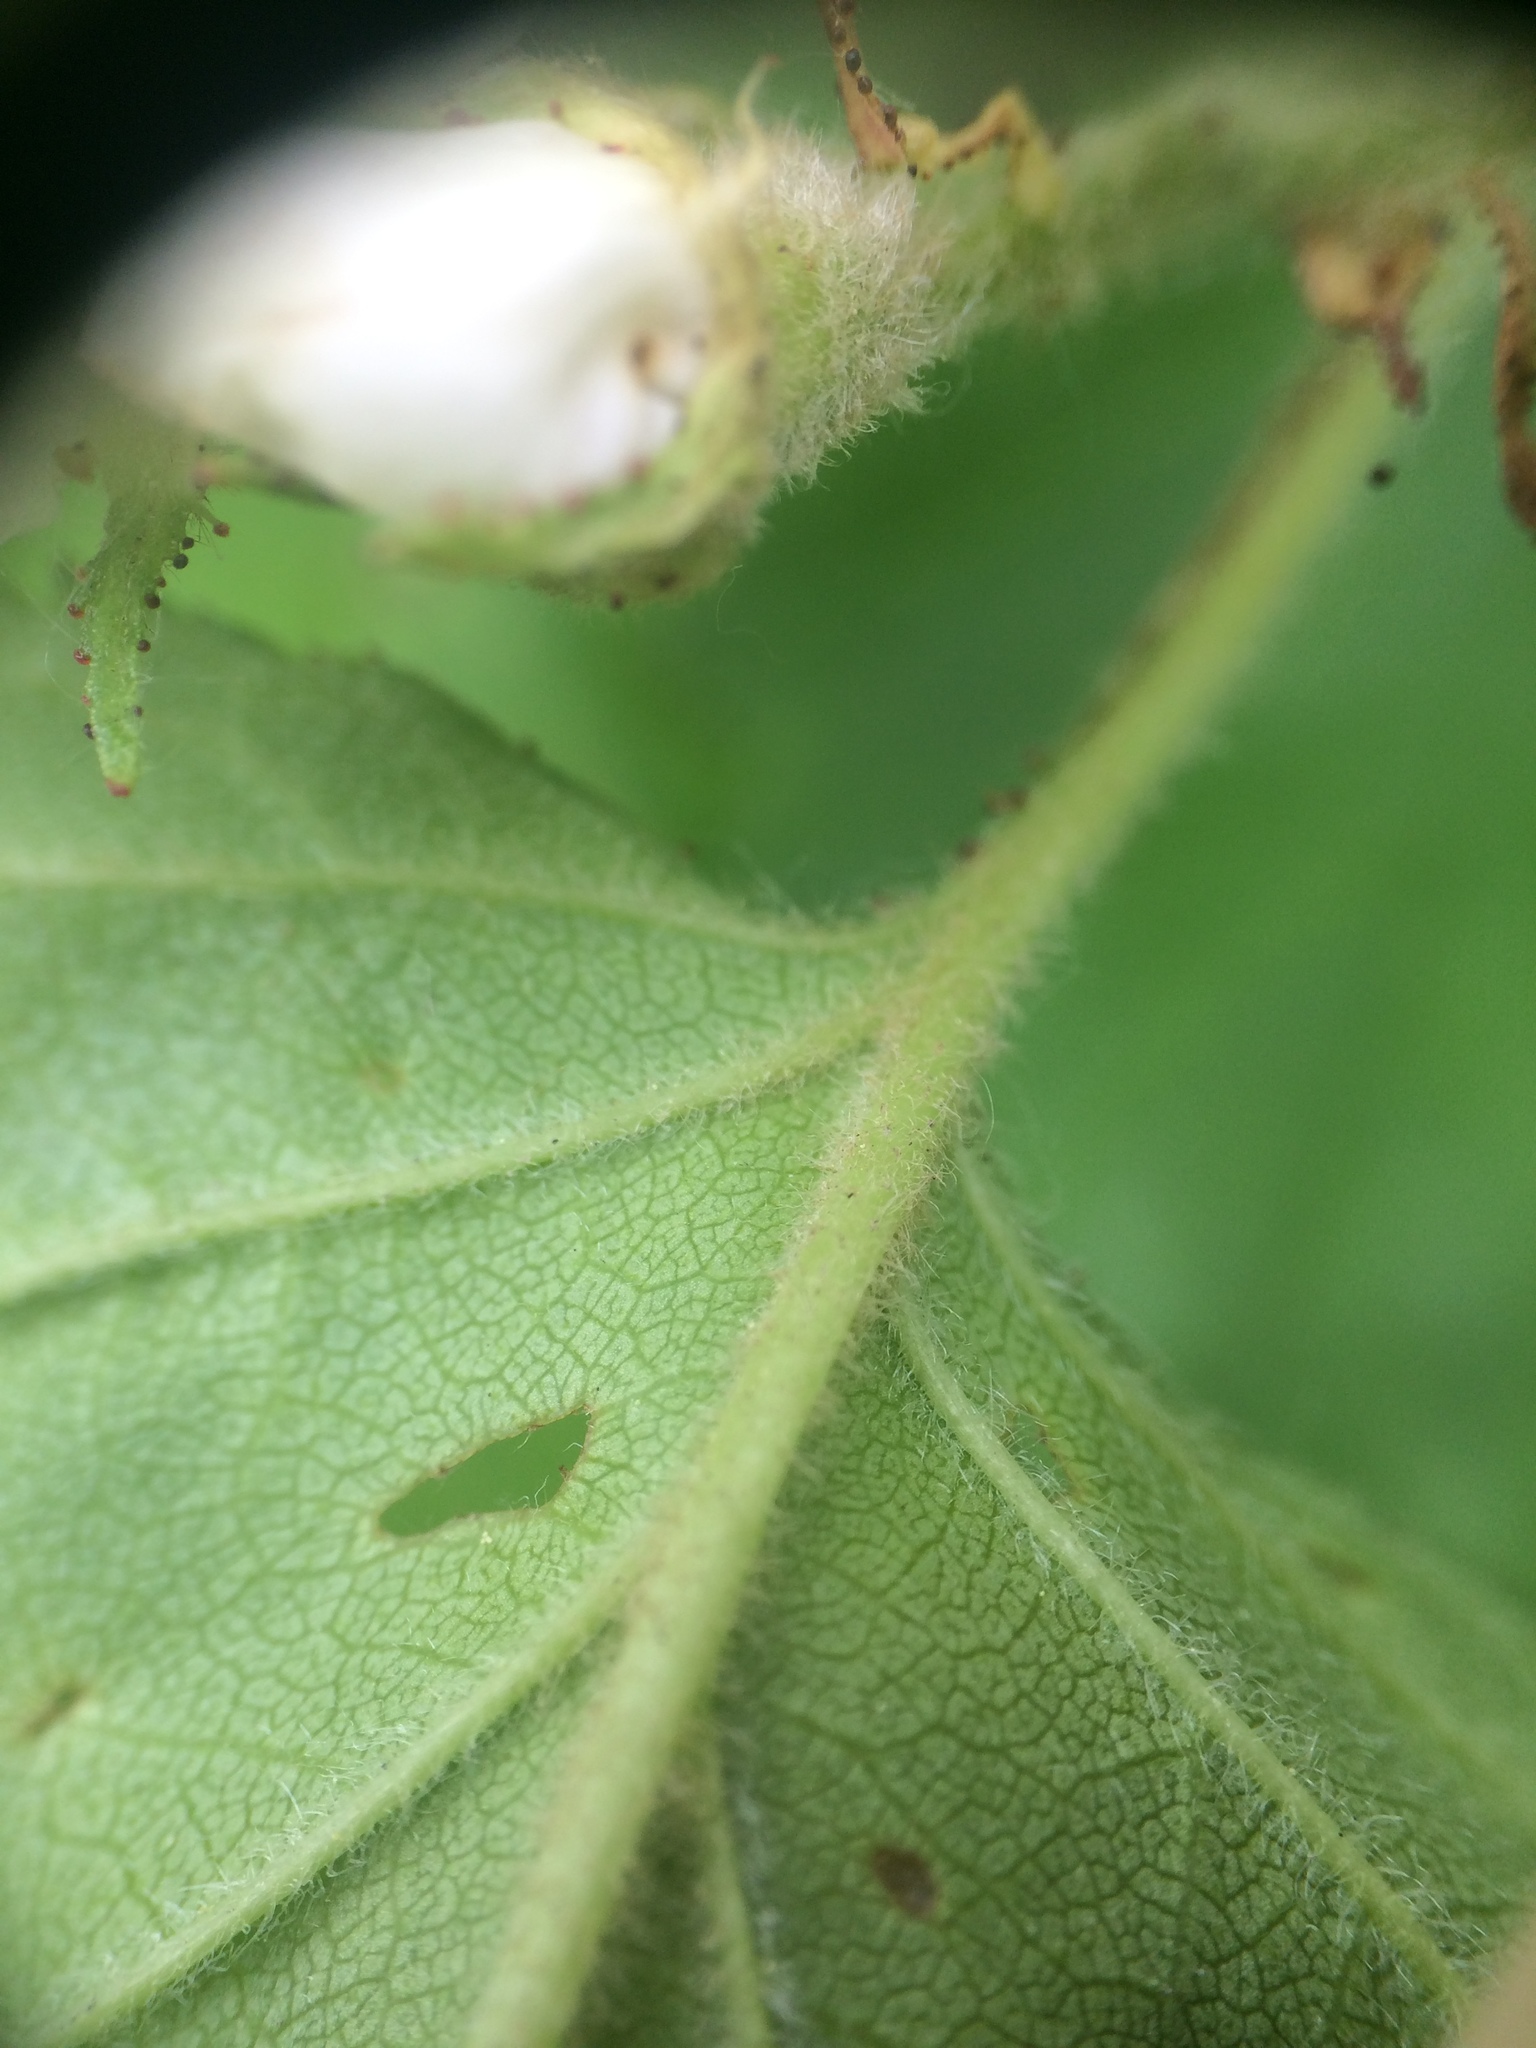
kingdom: Plantae
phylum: Tracheophyta
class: Magnoliopsida
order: Rosales
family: Rosaceae
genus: Crataegus
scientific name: Crataegus submollis
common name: Hairy cockspurthorn
